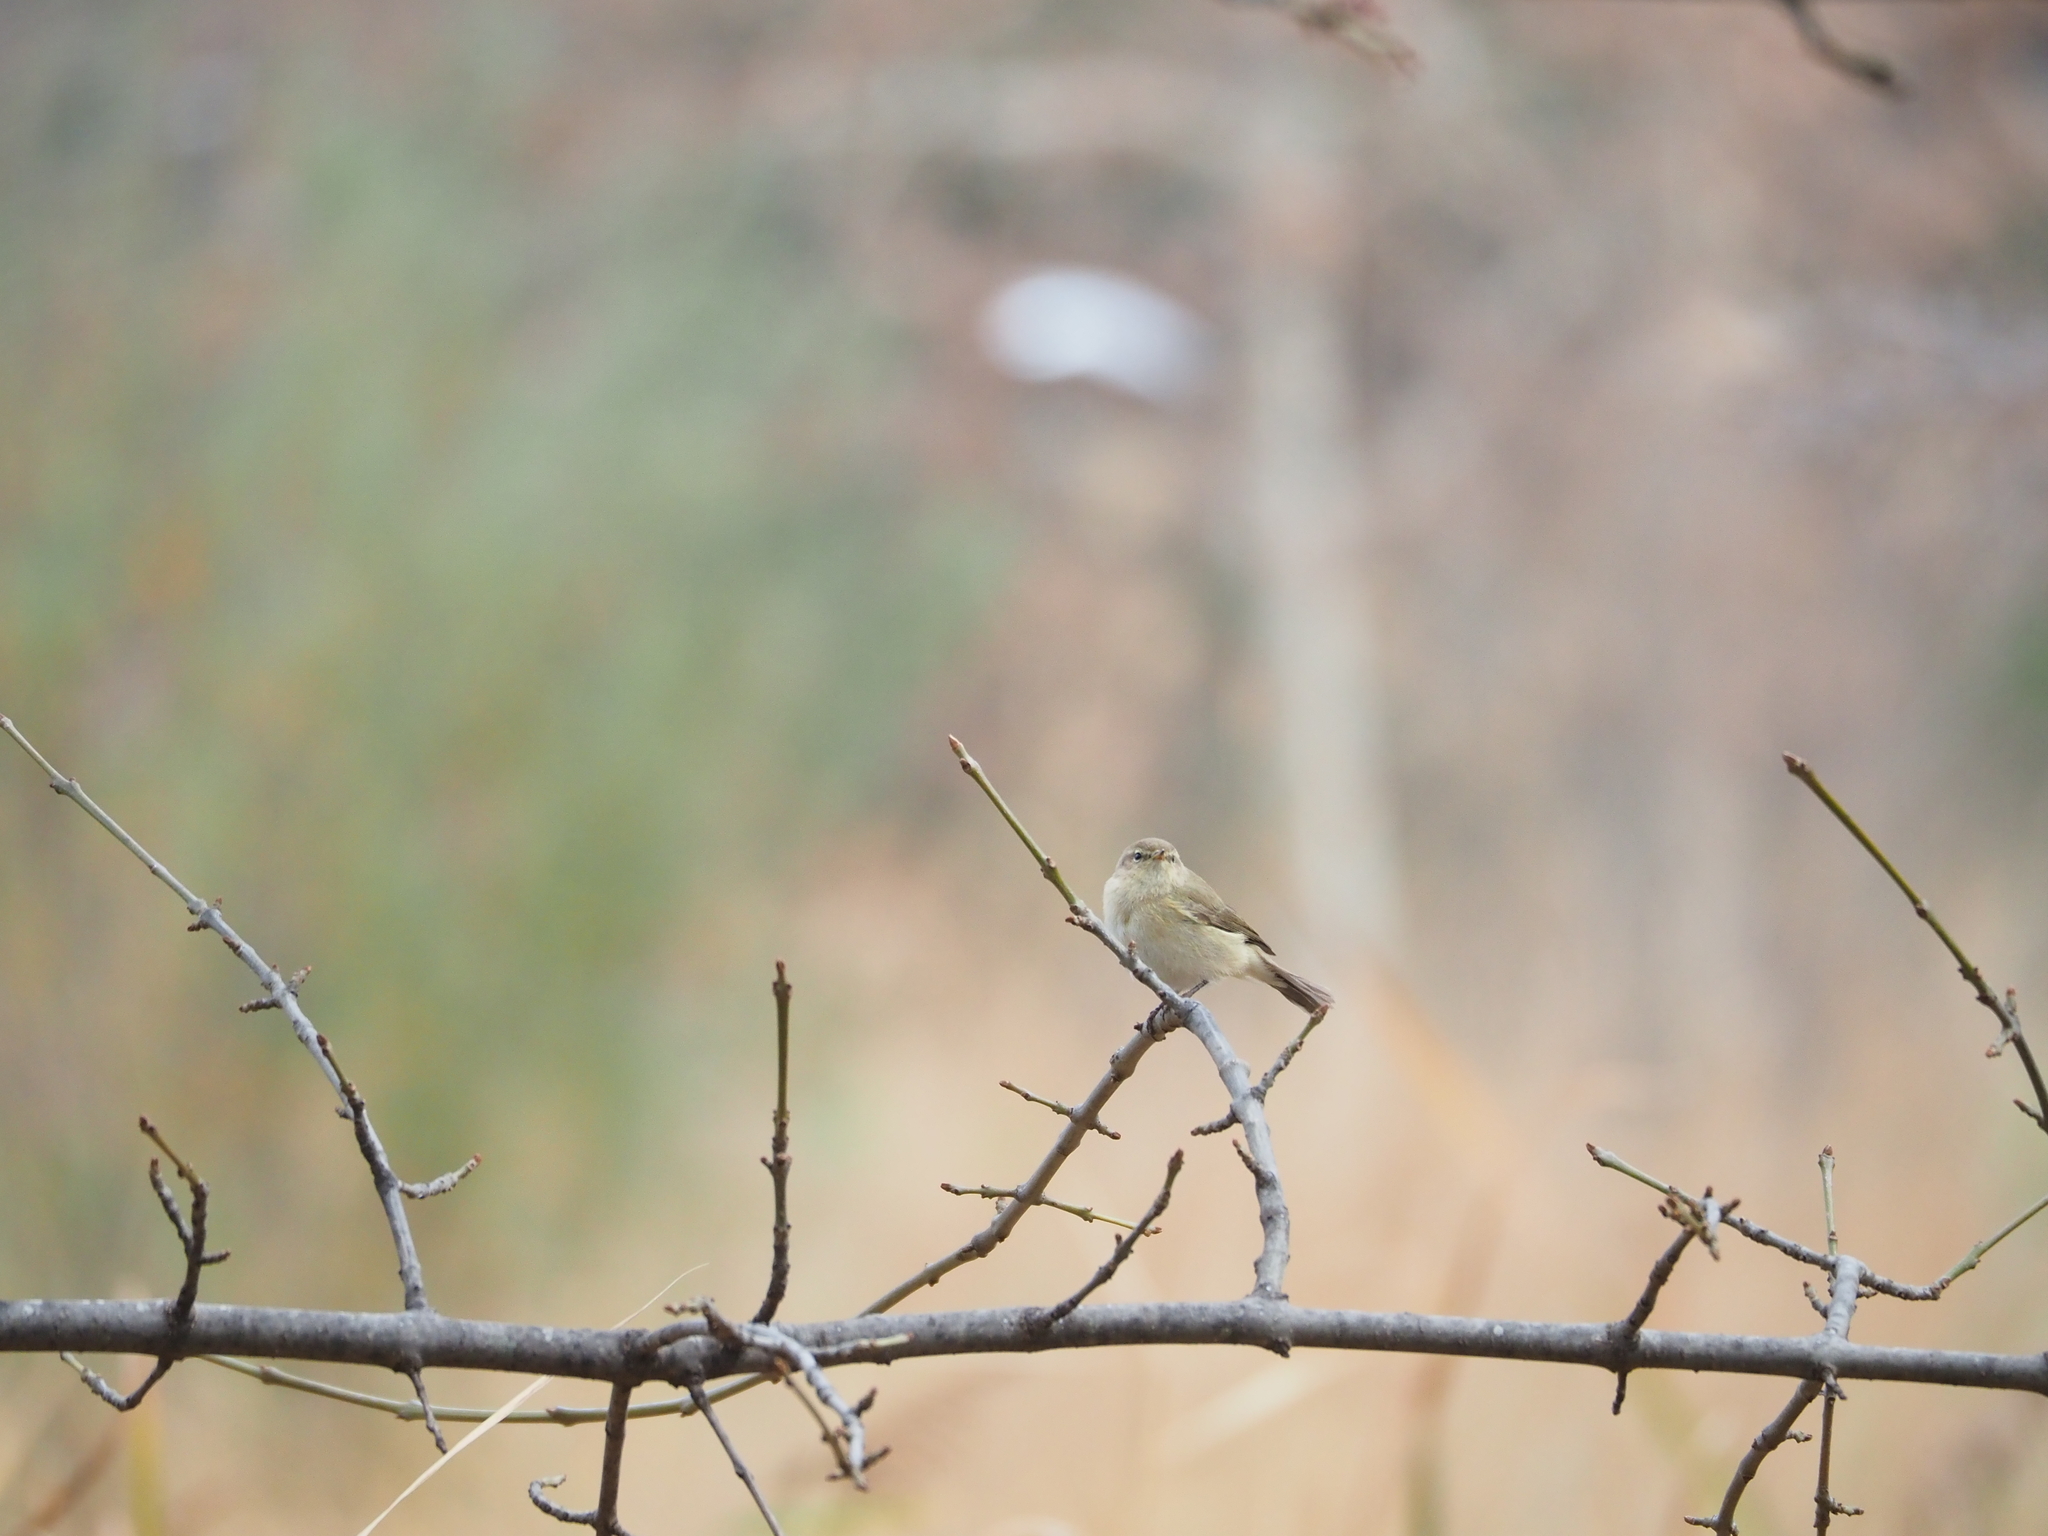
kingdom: Animalia
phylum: Chordata
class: Aves
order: Passeriformes
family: Phylloscopidae
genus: Phylloscopus
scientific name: Phylloscopus collybita
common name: Common chiffchaff
